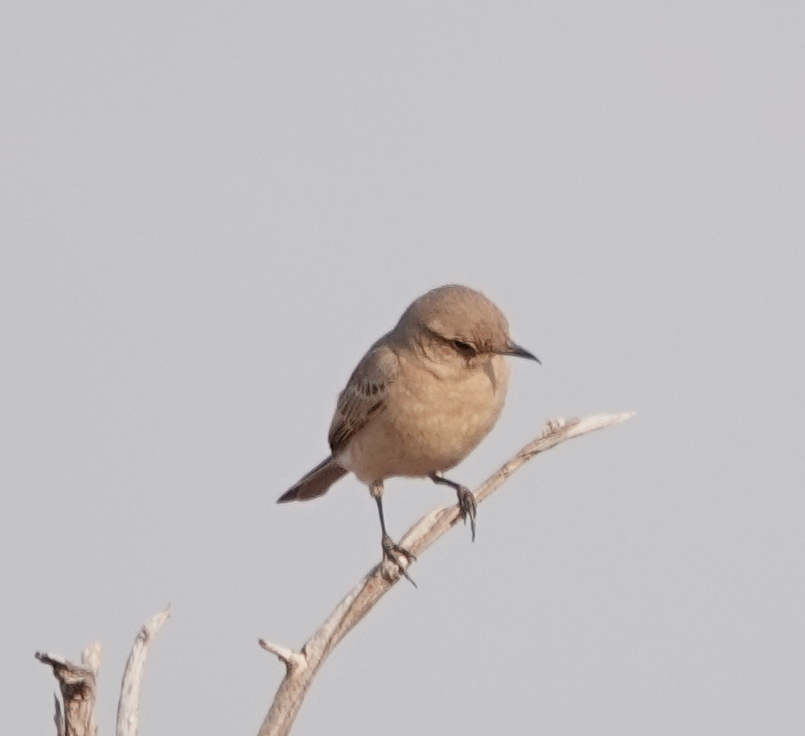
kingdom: Animalia
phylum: Chordata
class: Aves
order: Passeriformes
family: Muscicapidae
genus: Bradornis
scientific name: Bradornis infuscatus
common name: Chat flycatcher
